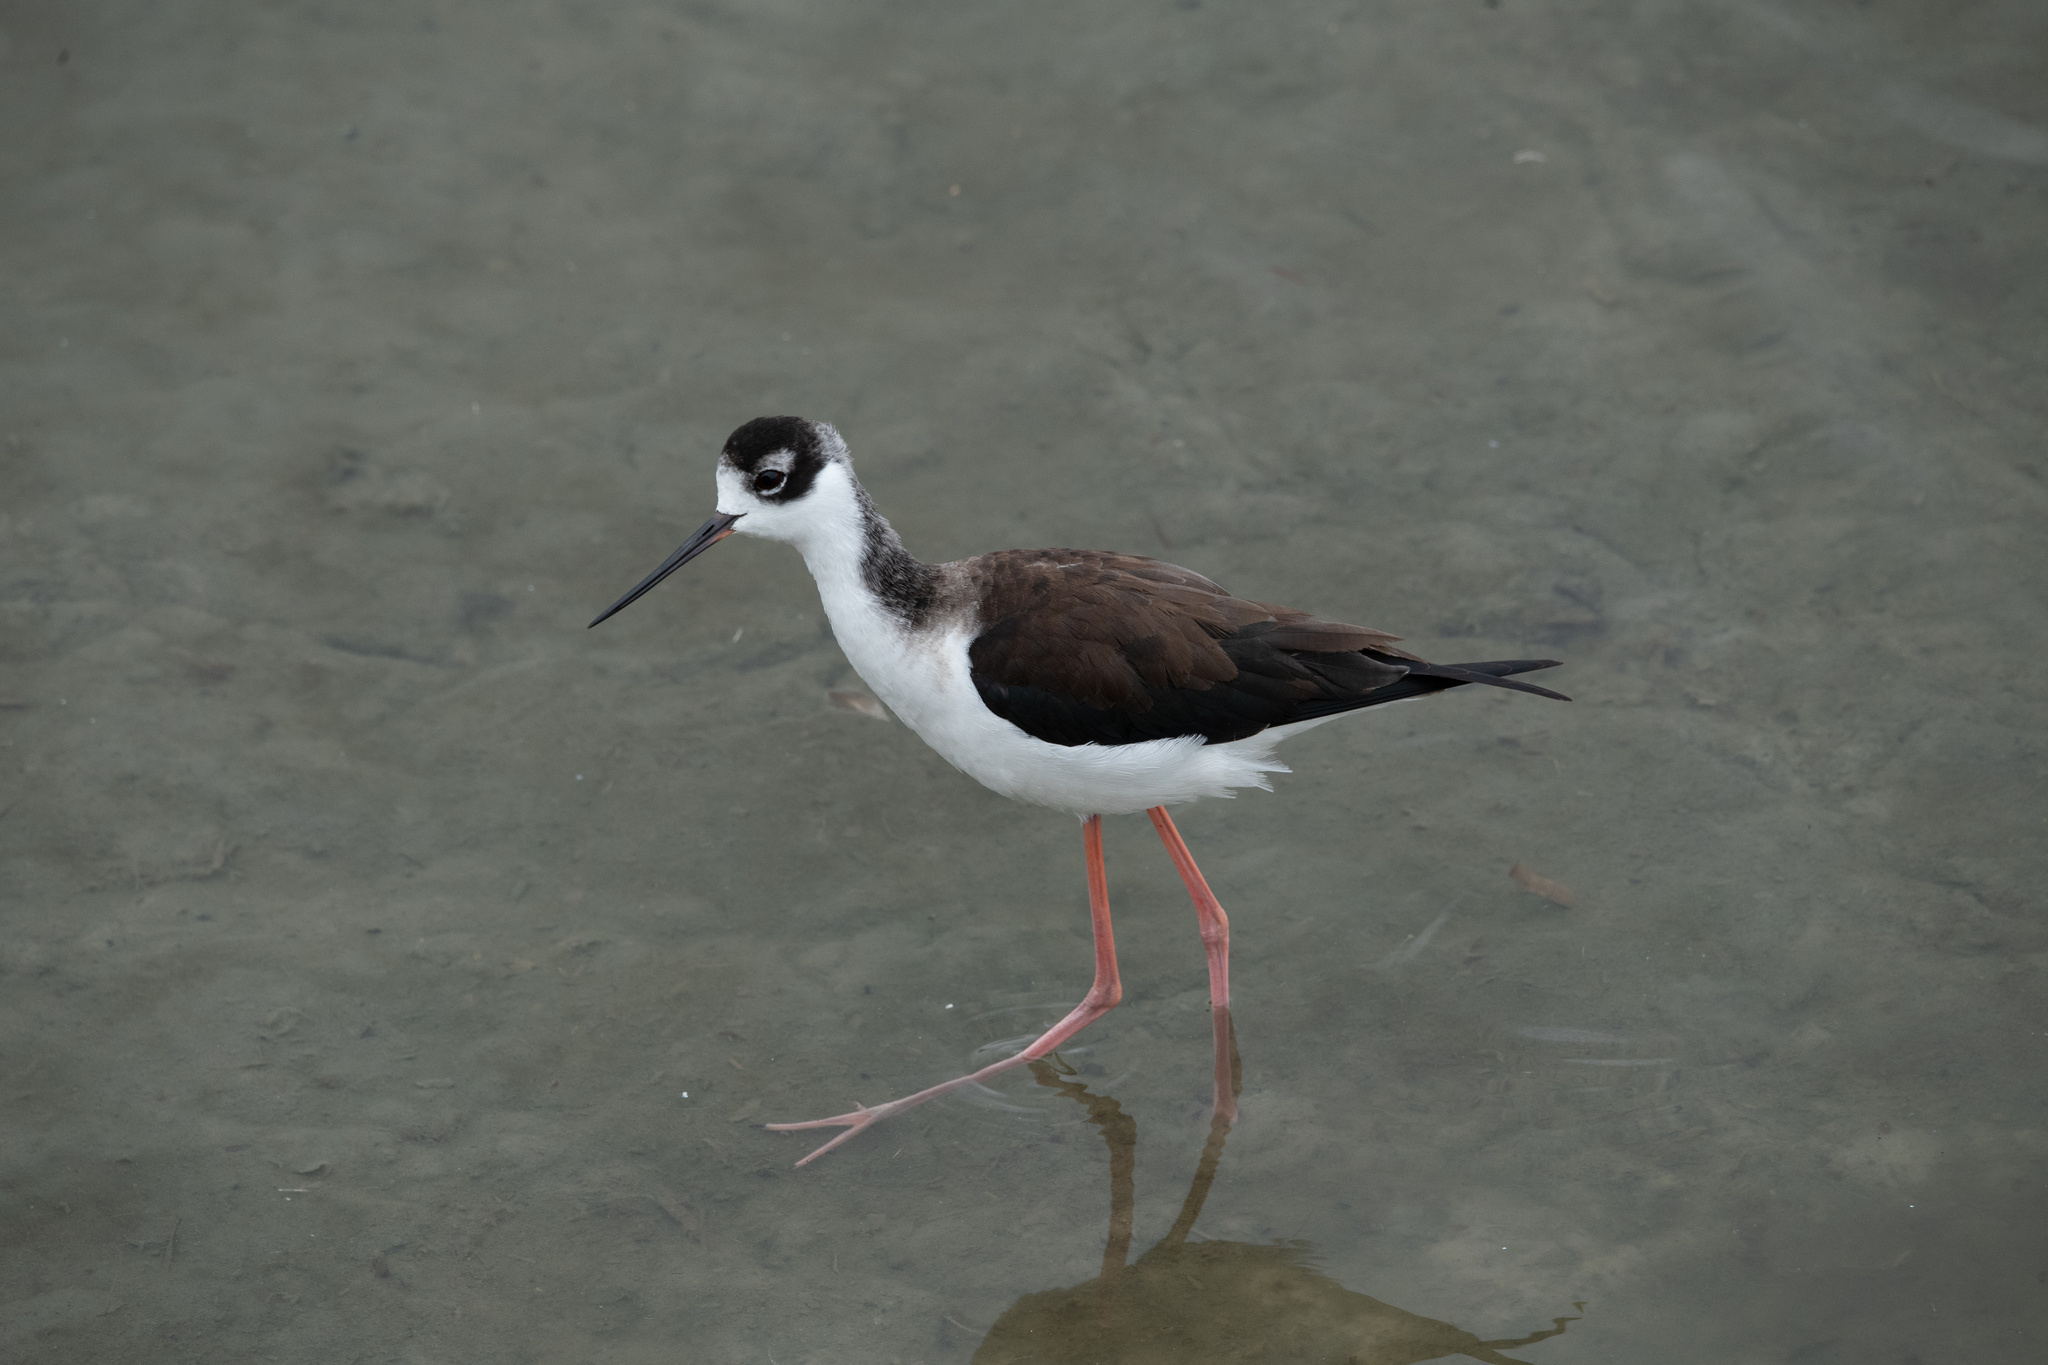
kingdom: Animalia
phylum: Chordata
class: Aves
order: Charadriiformes
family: Recurvirostridae
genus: Himantopus
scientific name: Himantopus mexicanus
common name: Black-necked stilt
